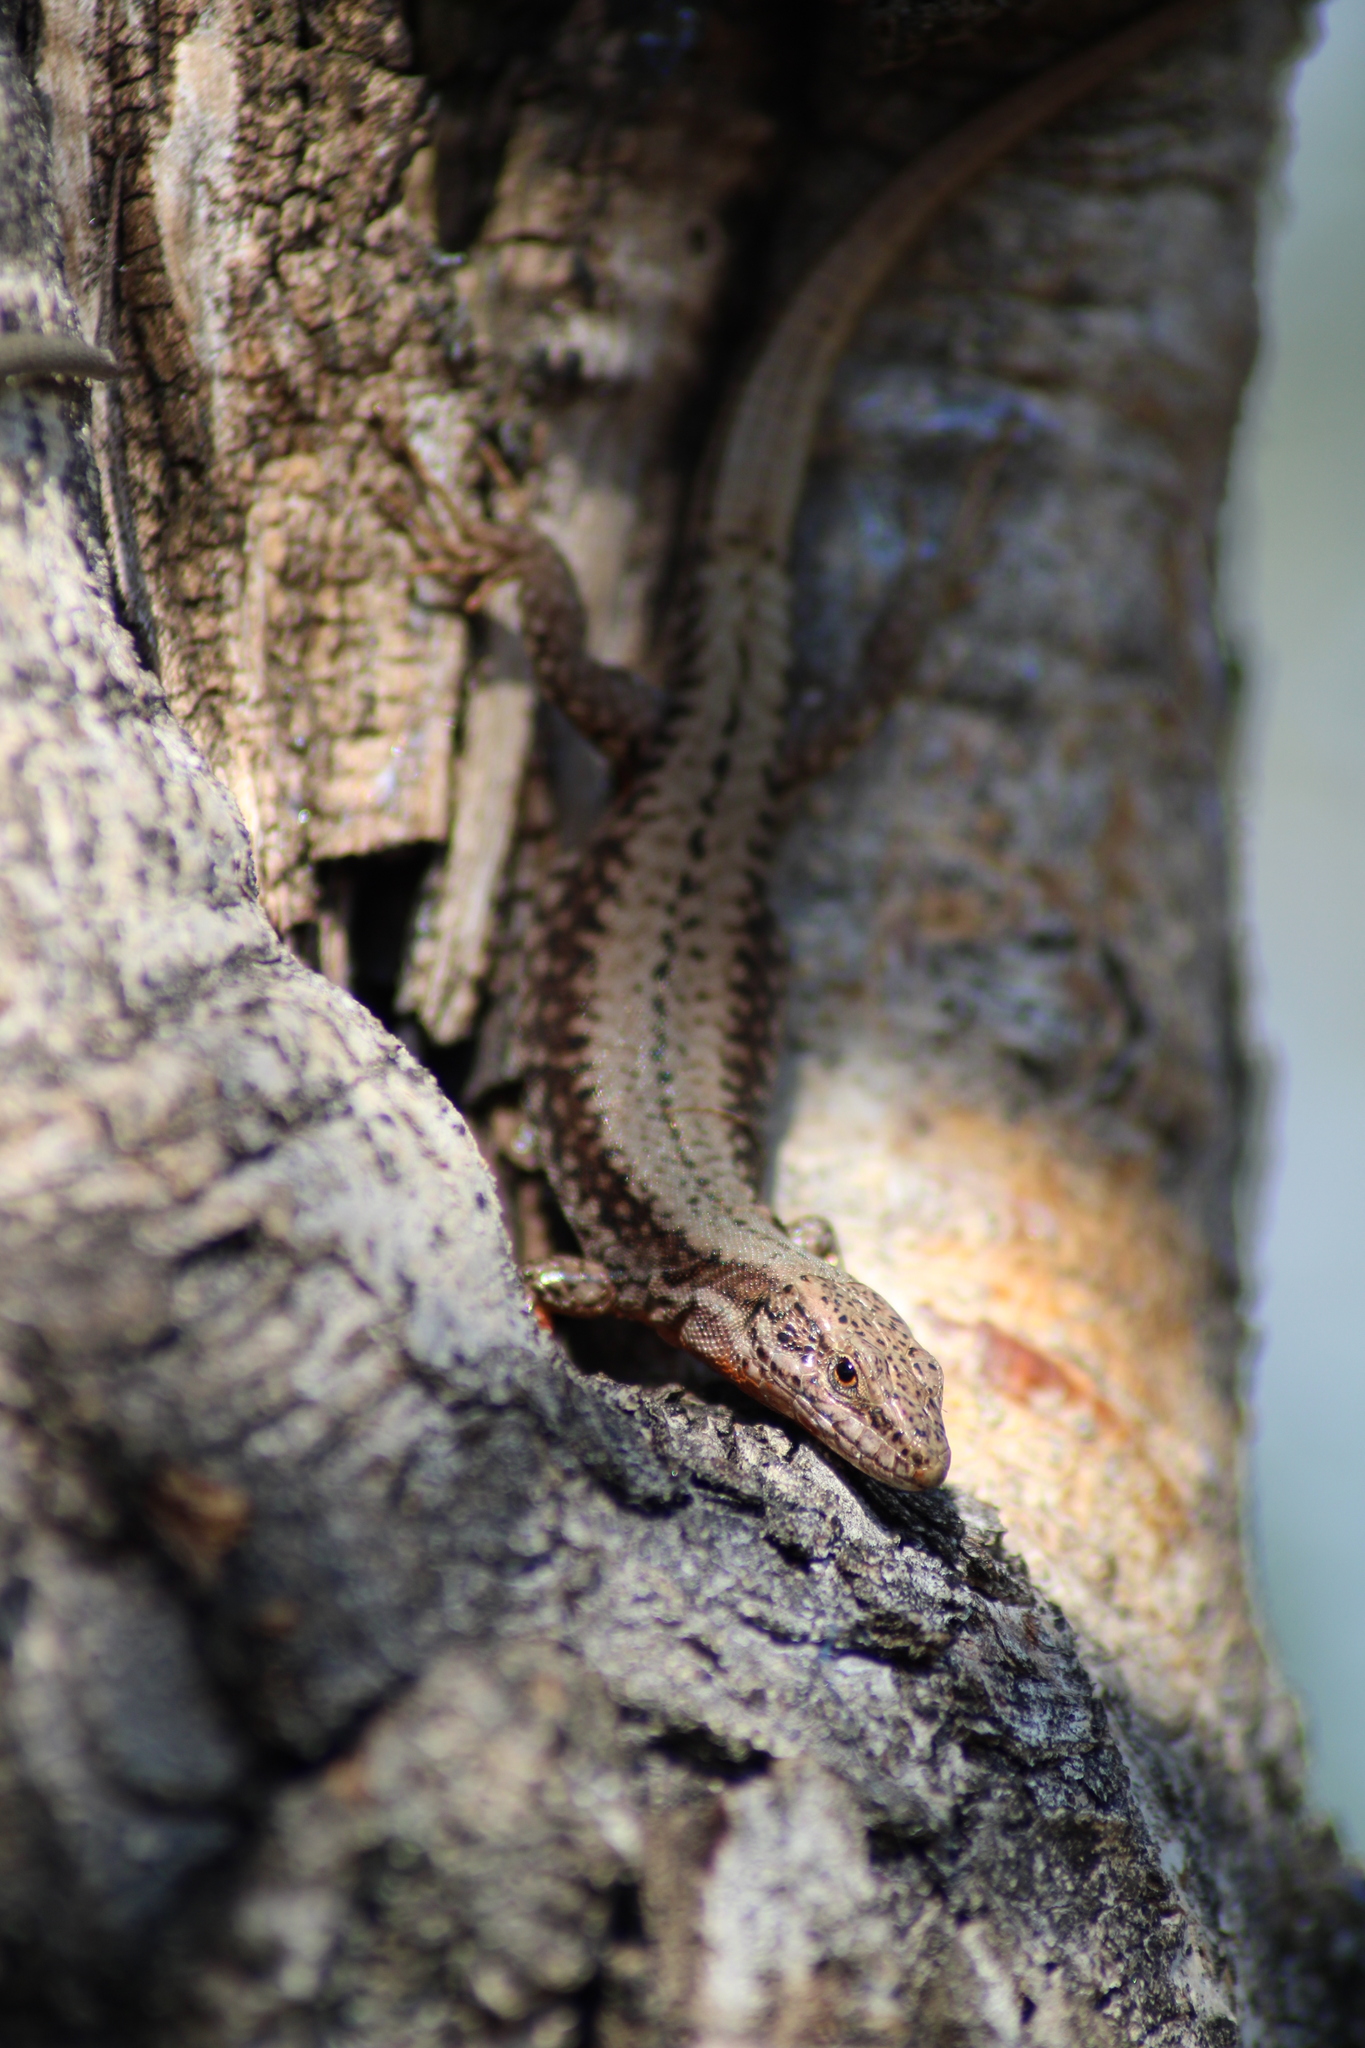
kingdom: Animalia
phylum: Chordata
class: Squamata
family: Lacertidae
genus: Podarcis
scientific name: Podarcis muralis
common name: Common wall lizard
